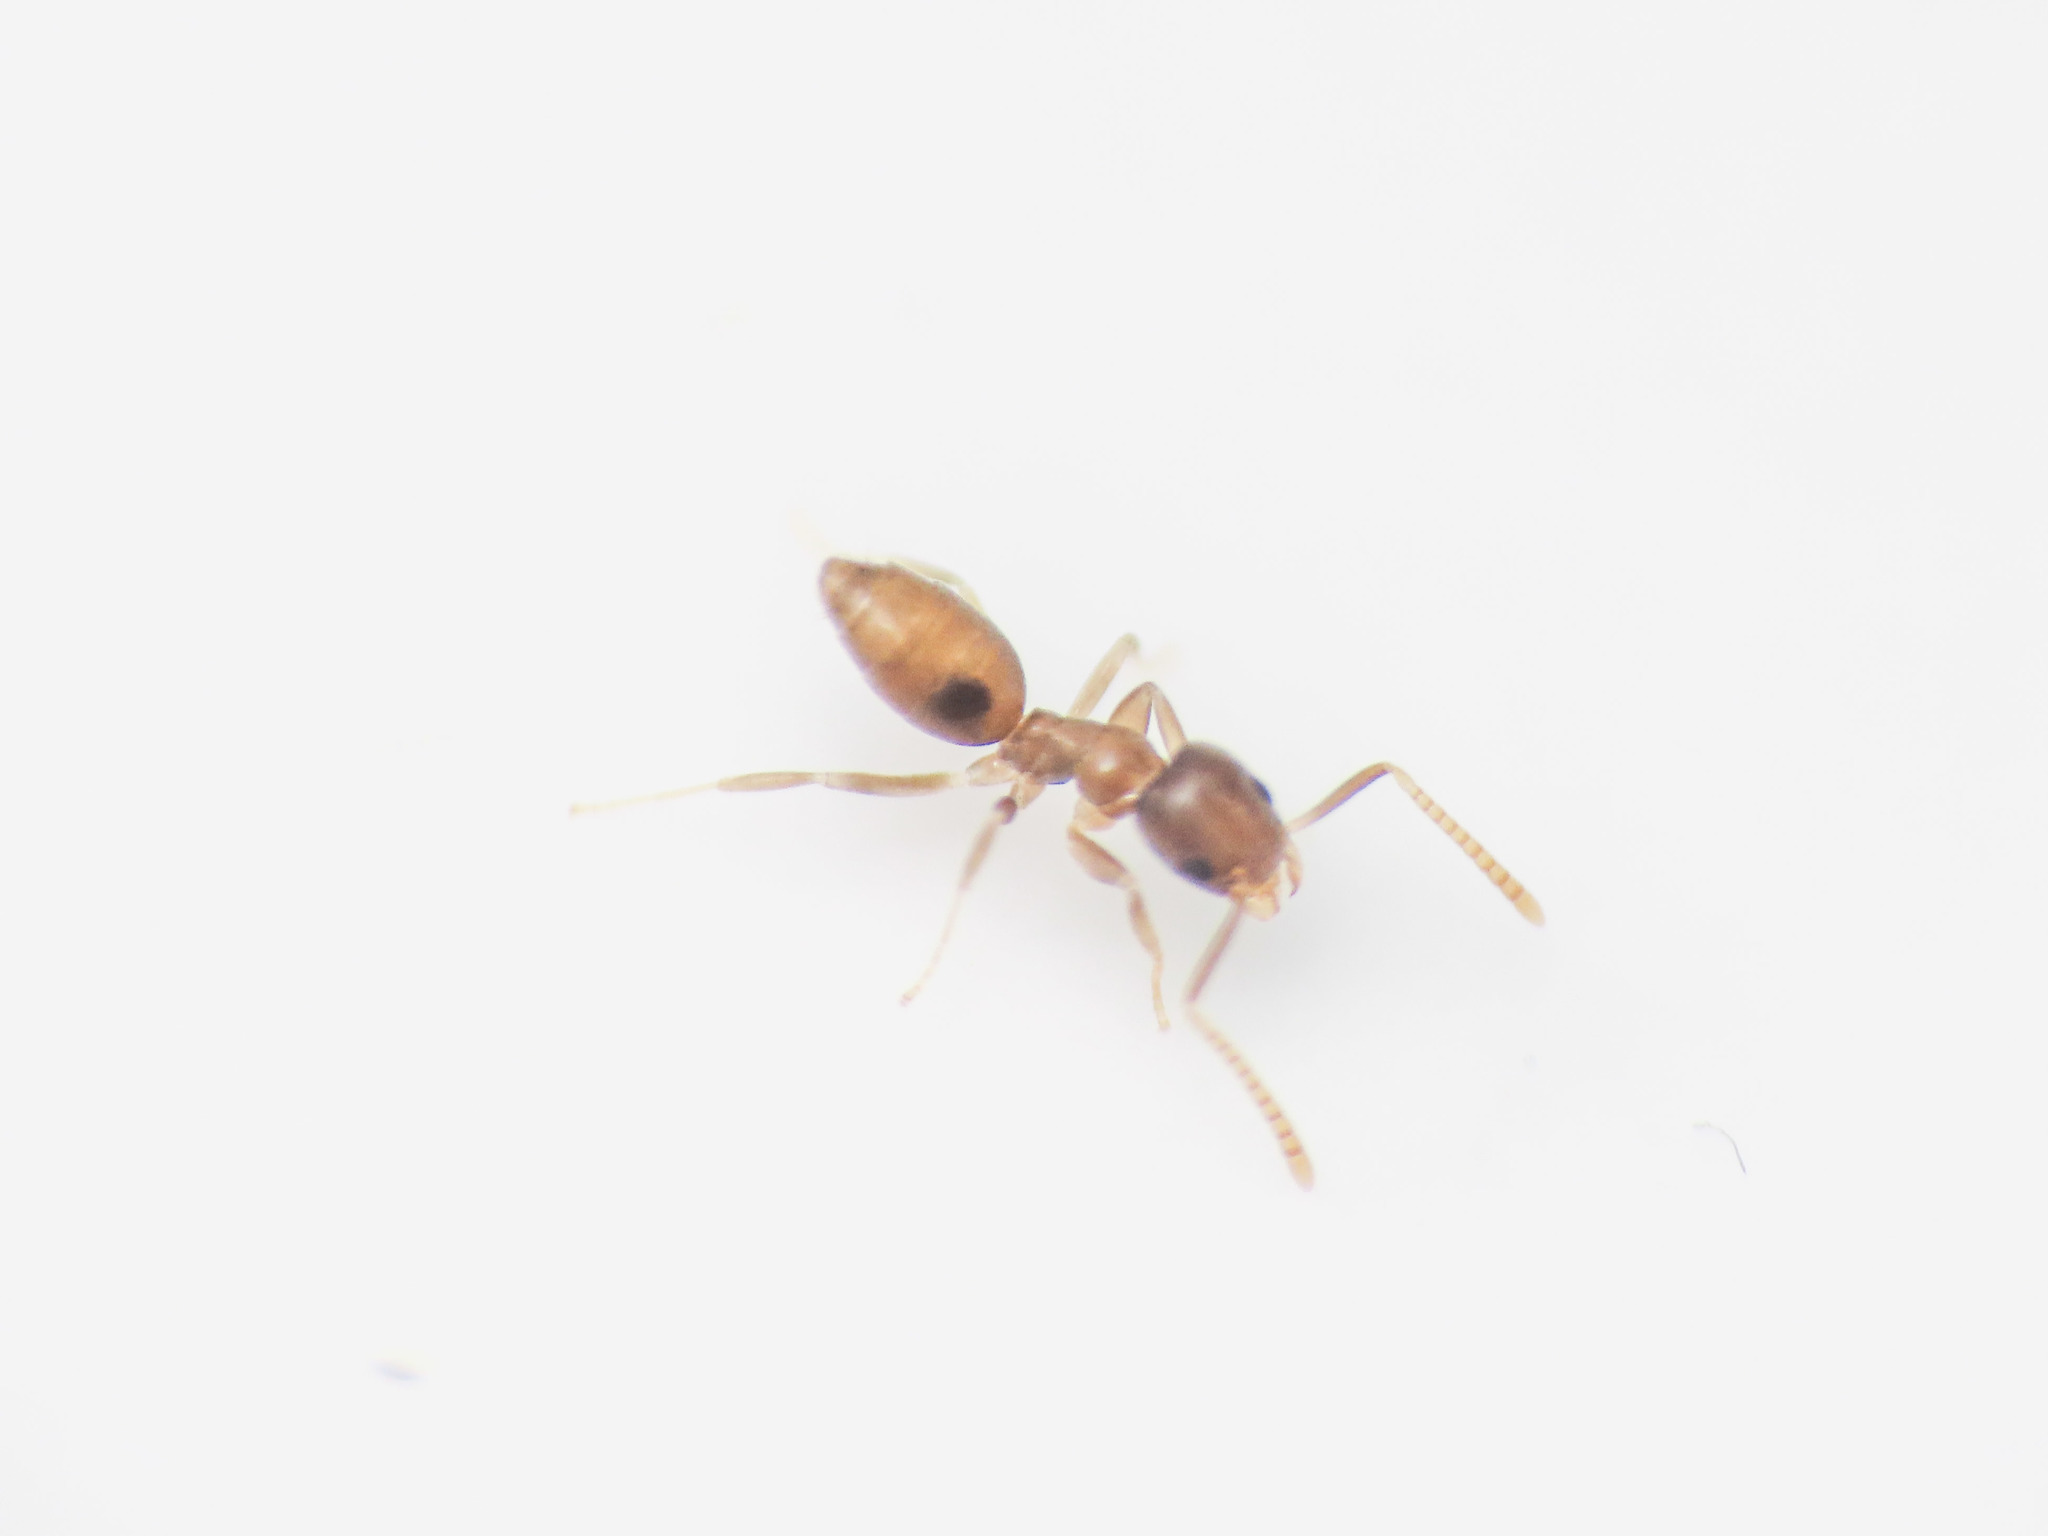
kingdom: Animalia
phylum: Arthropoda
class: Insecta
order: Hymenoptera
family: Formicidae
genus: Tapinoma
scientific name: Tapinoma melanocephalum
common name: Ghost ant
